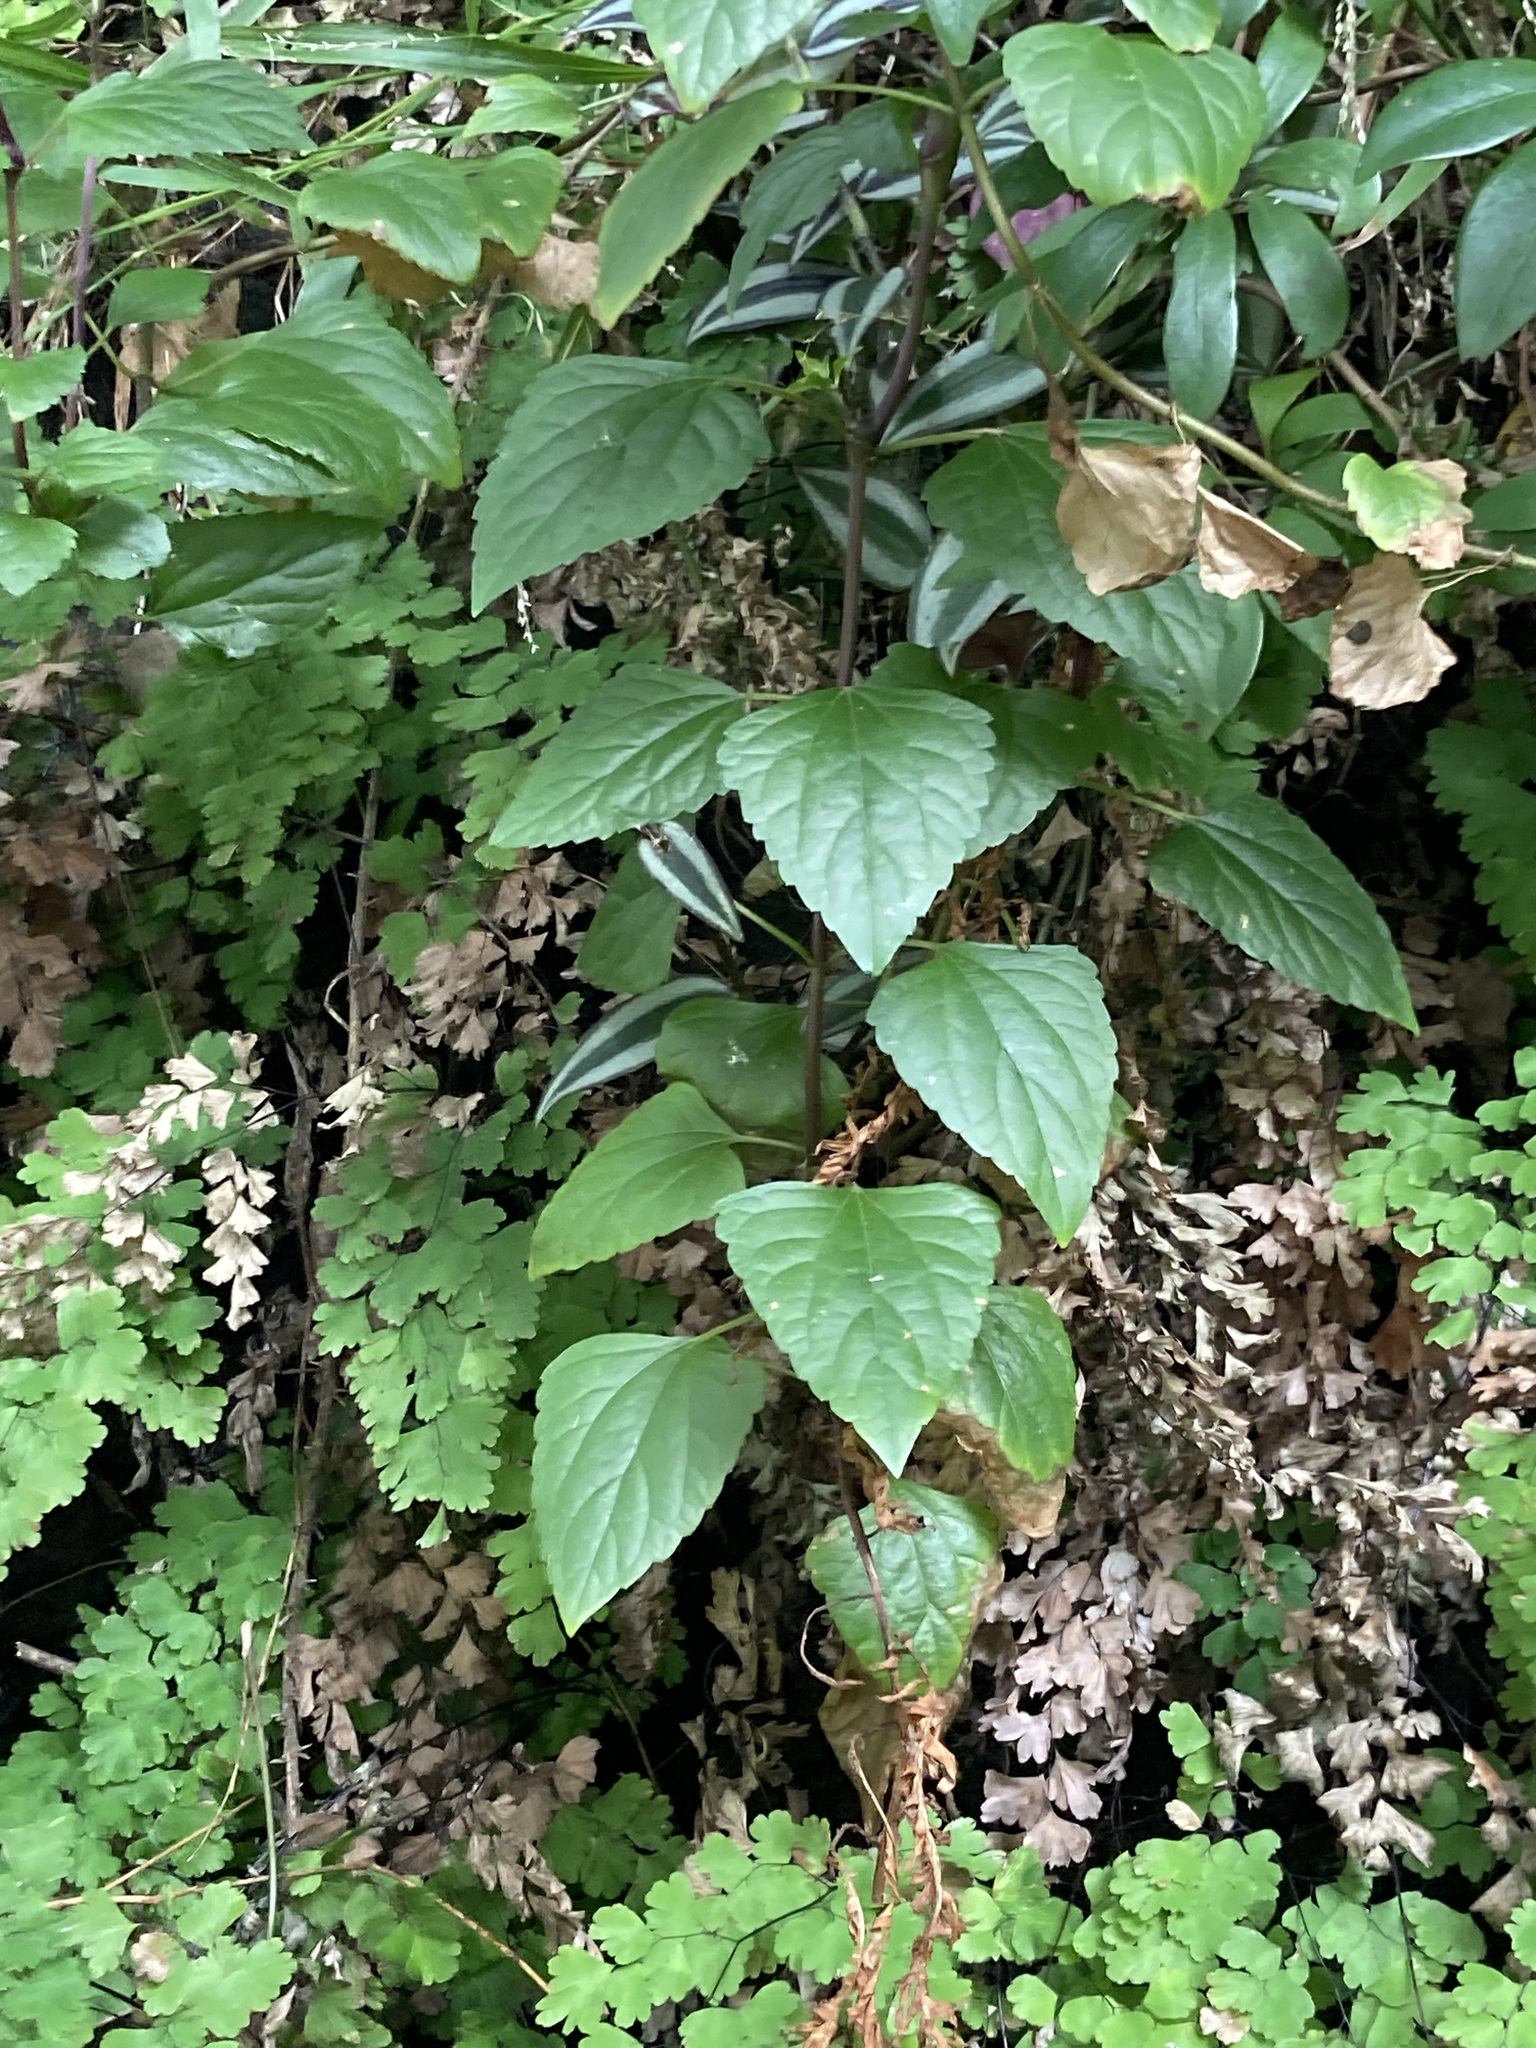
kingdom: Plantae
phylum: Tracheophyta
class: Magnoliopsida
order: Asterales
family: Asteraceae
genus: Ageratina
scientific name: Ageratina adenophora
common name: Sticky snakeroot
